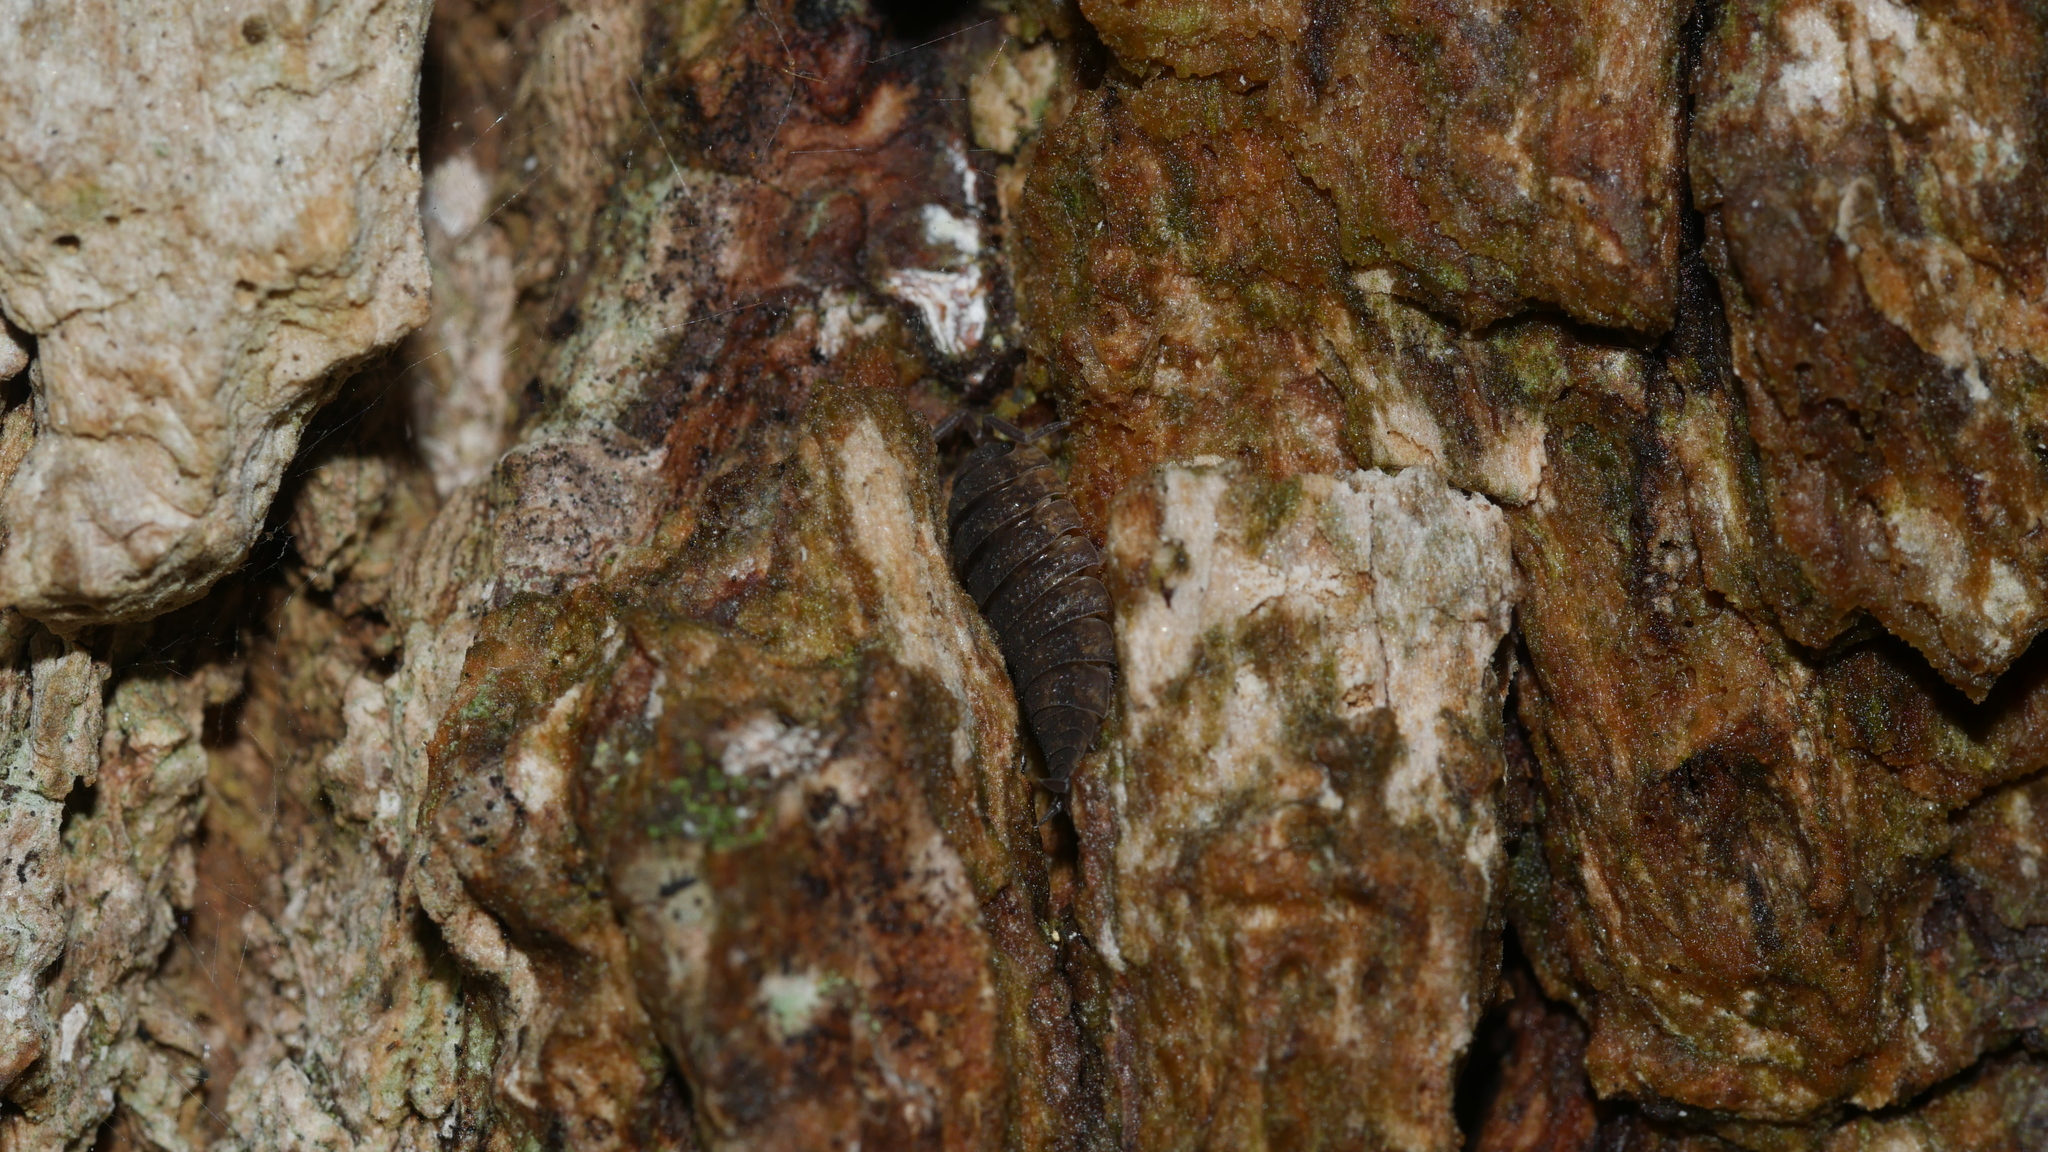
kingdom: Animalia
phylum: Arthropoda
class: Malacostraca
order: Isopoda
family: Porcellionidae
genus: Porcellio
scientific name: Porcellio scaber
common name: Common rough woodlouse
